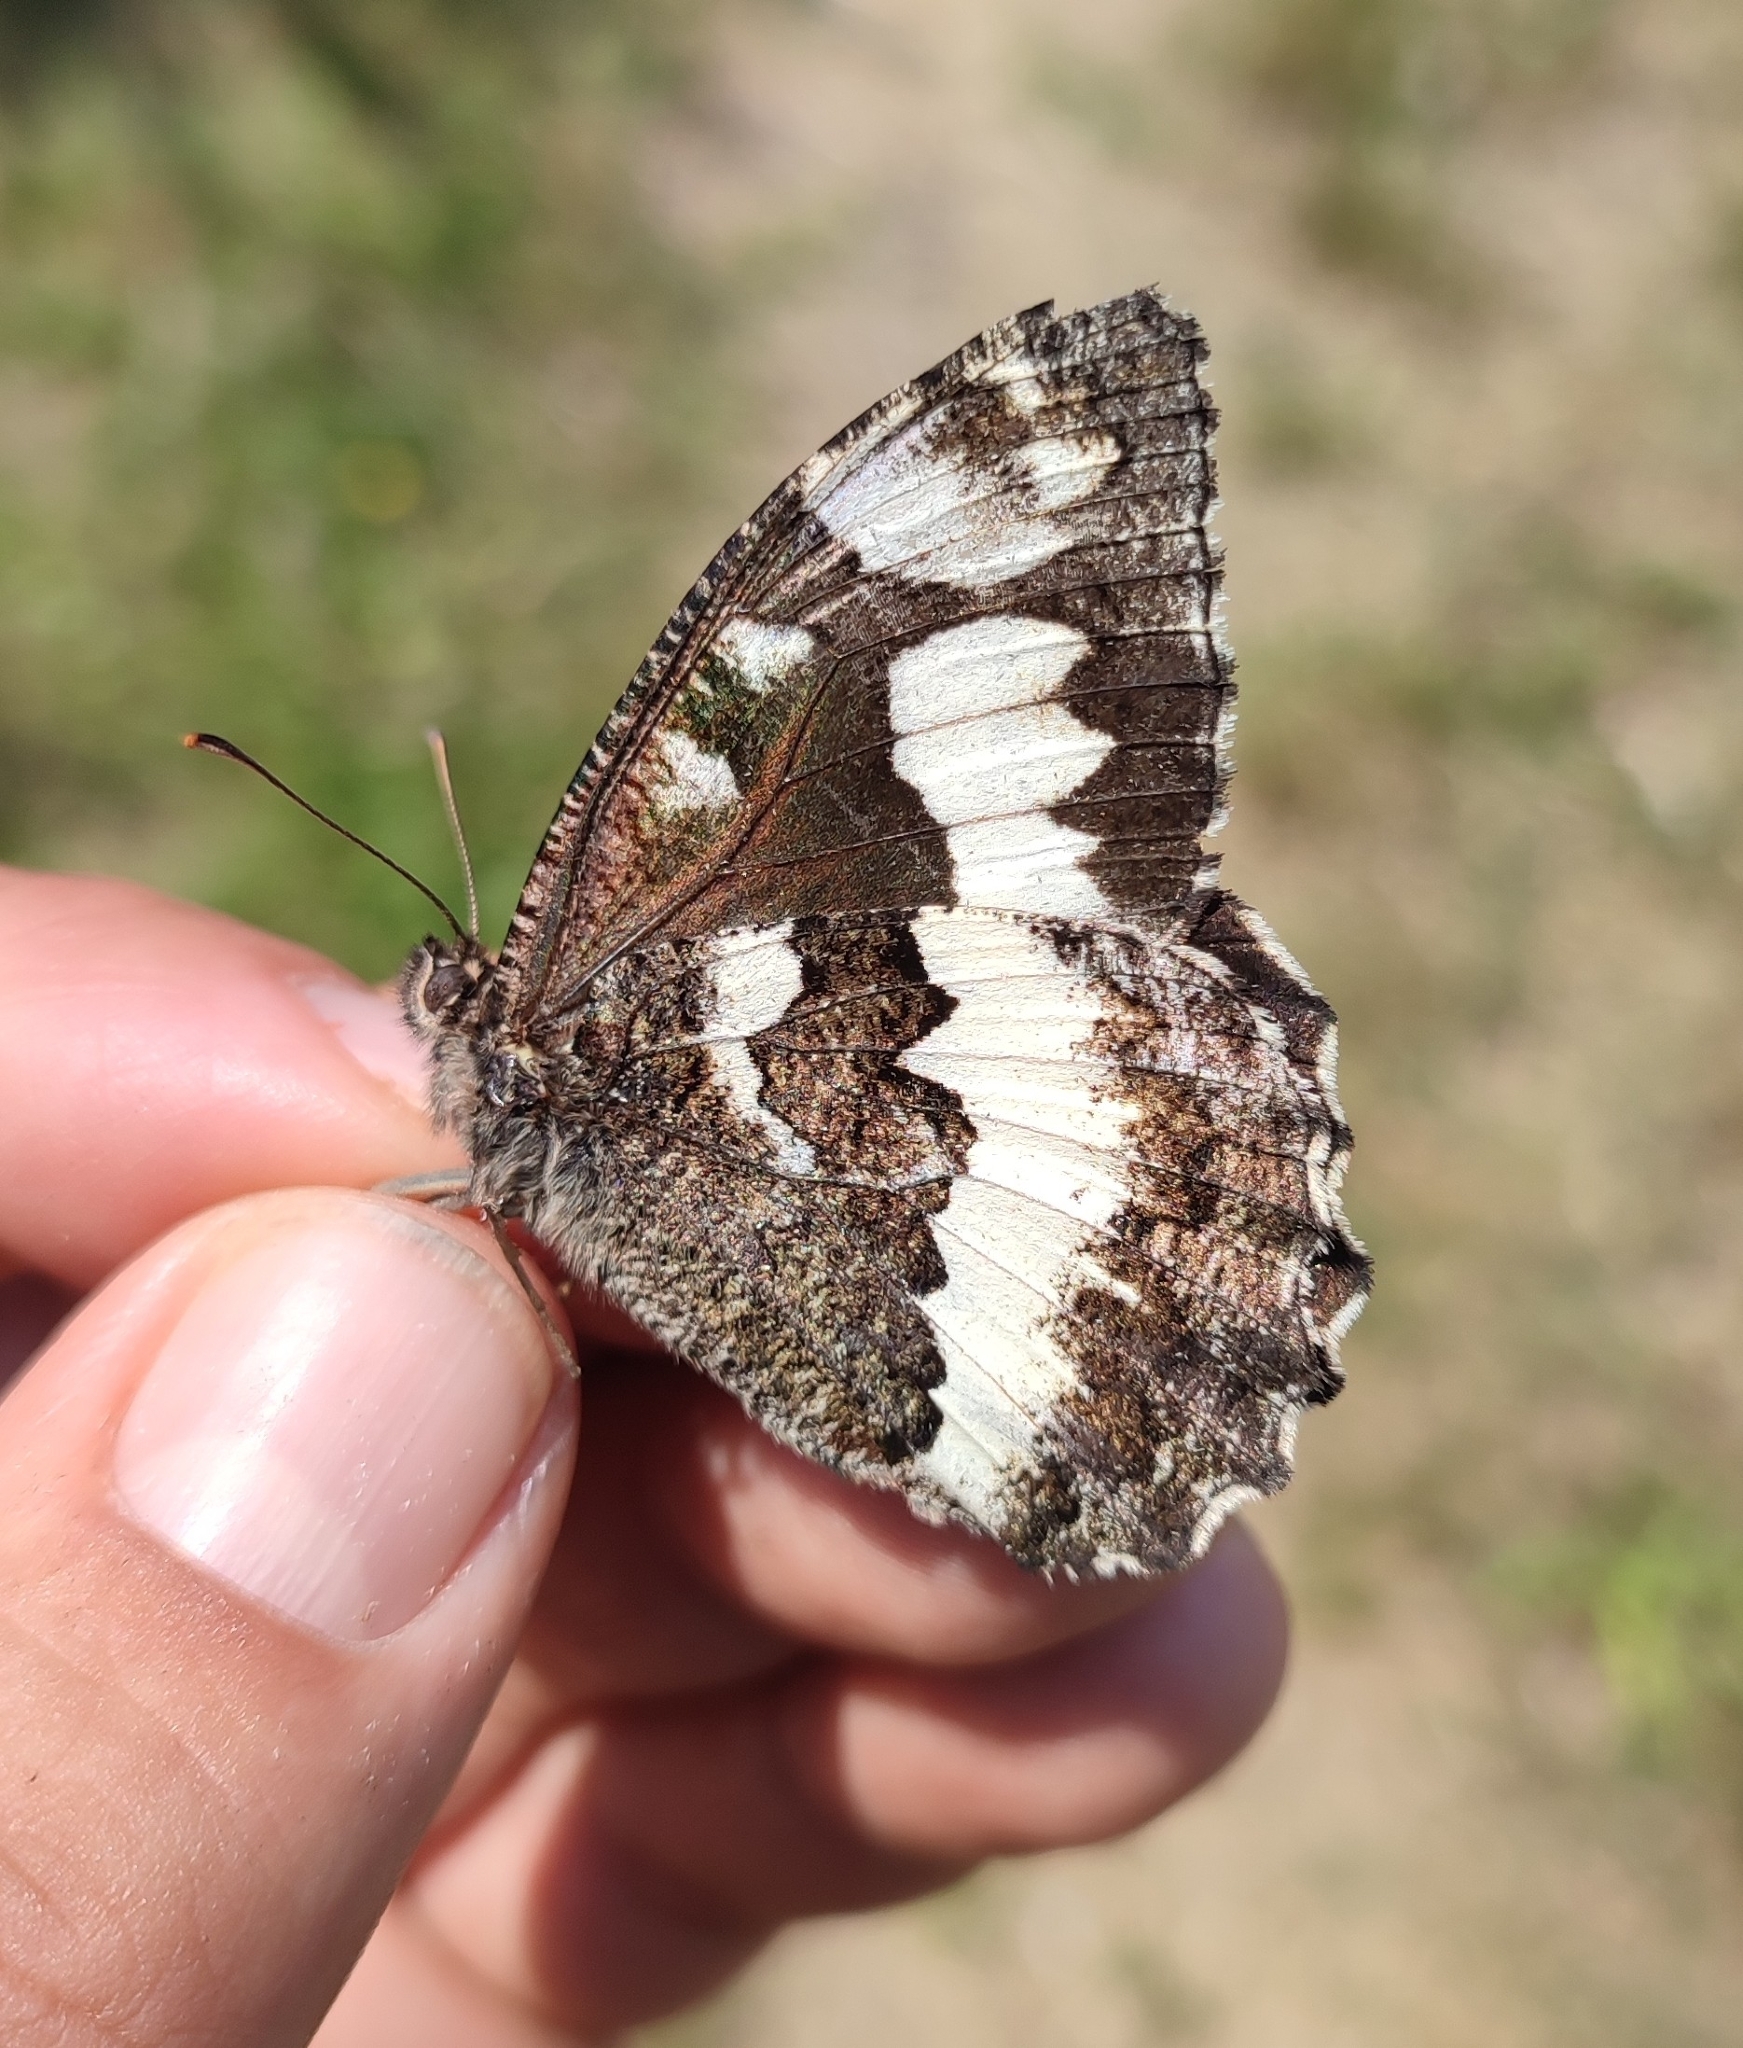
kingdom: Animalia
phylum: Arthropoda
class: Insecta
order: Lepidoptera
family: Lycaenidae
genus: Loweia
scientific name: Loweia tityrus
